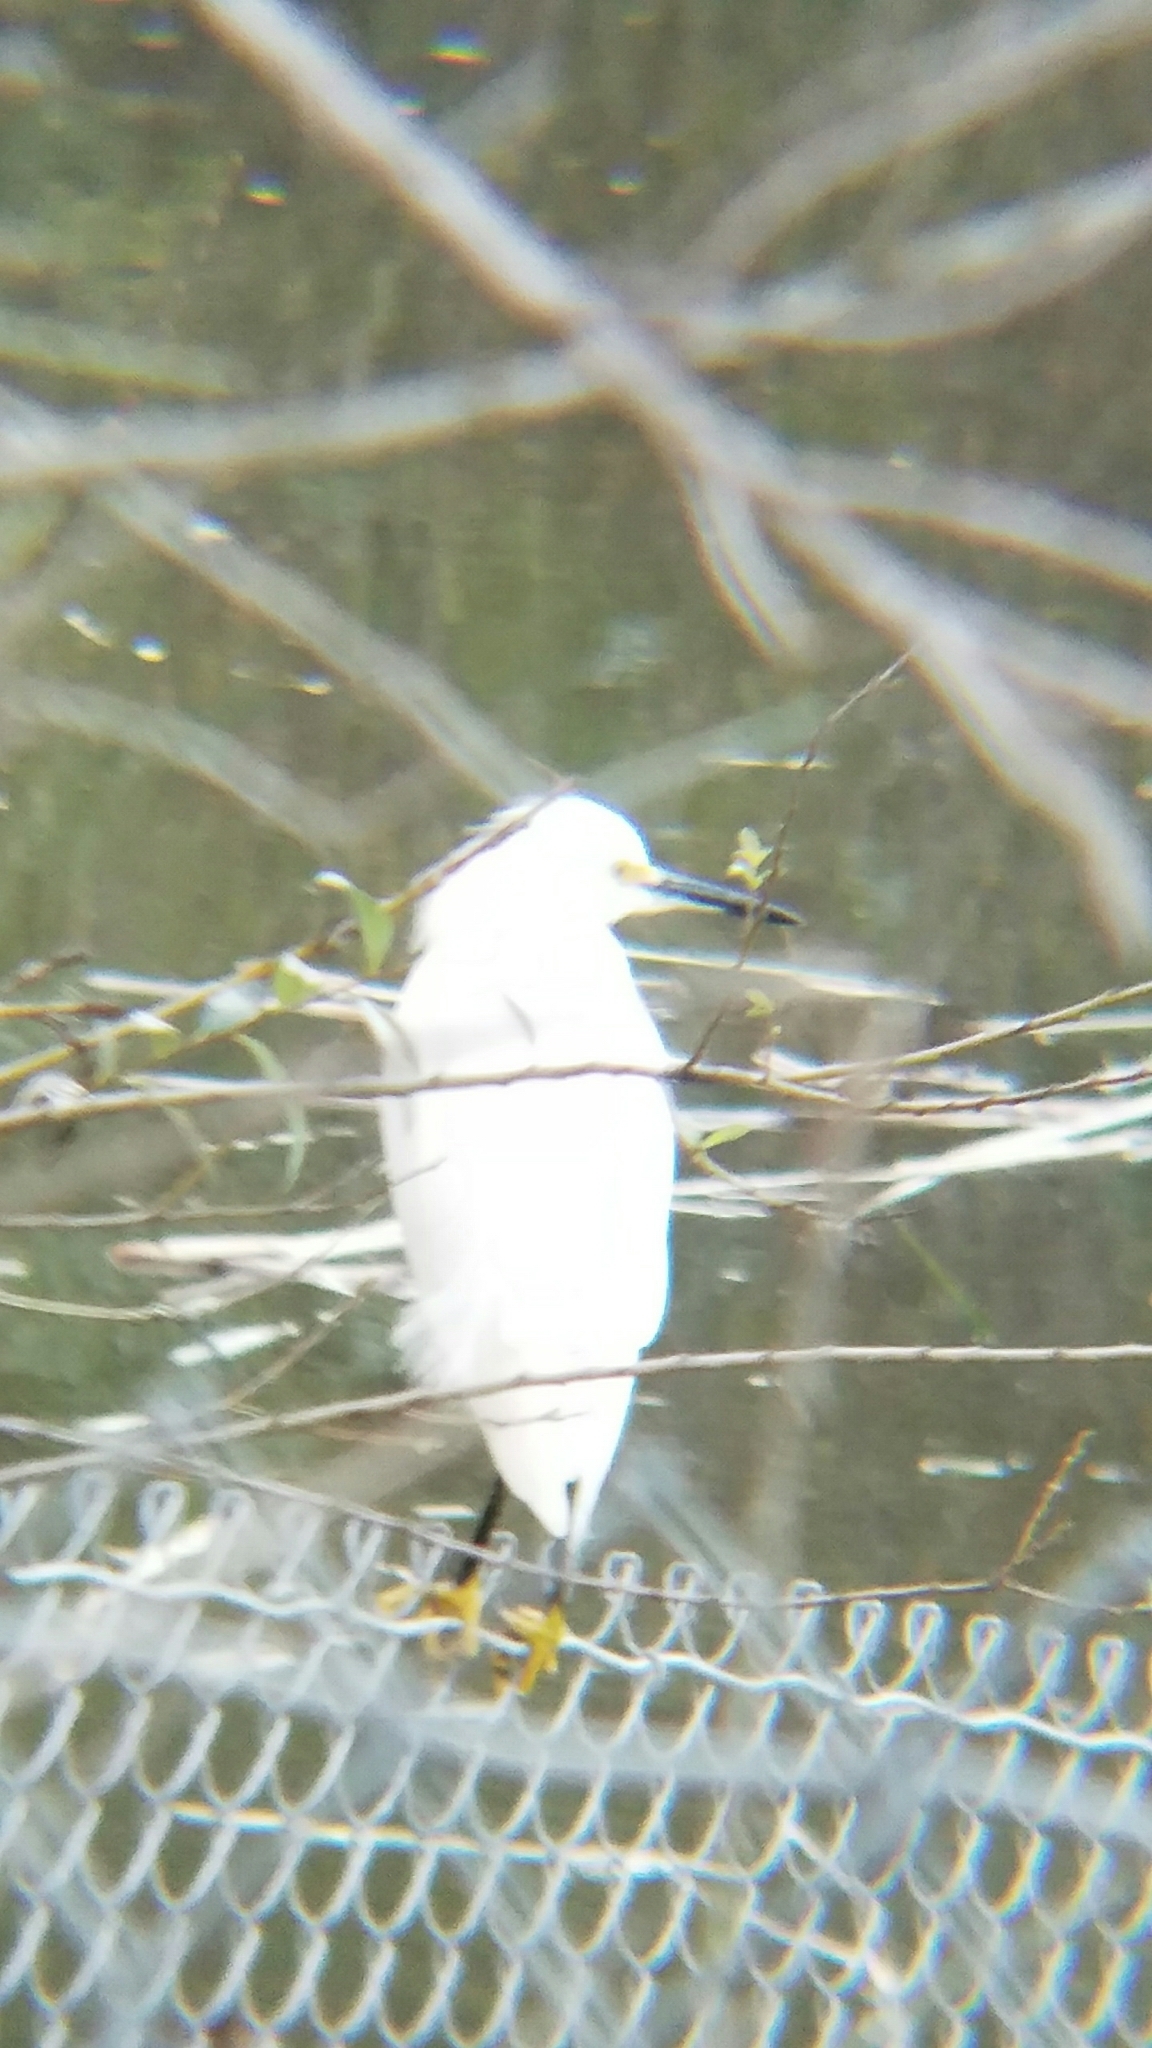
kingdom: Animalia
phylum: Chordata
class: Aves
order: Pelecaniformes
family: Ardeidae
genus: Egretta
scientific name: Egretta thula
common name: Snowy egret
